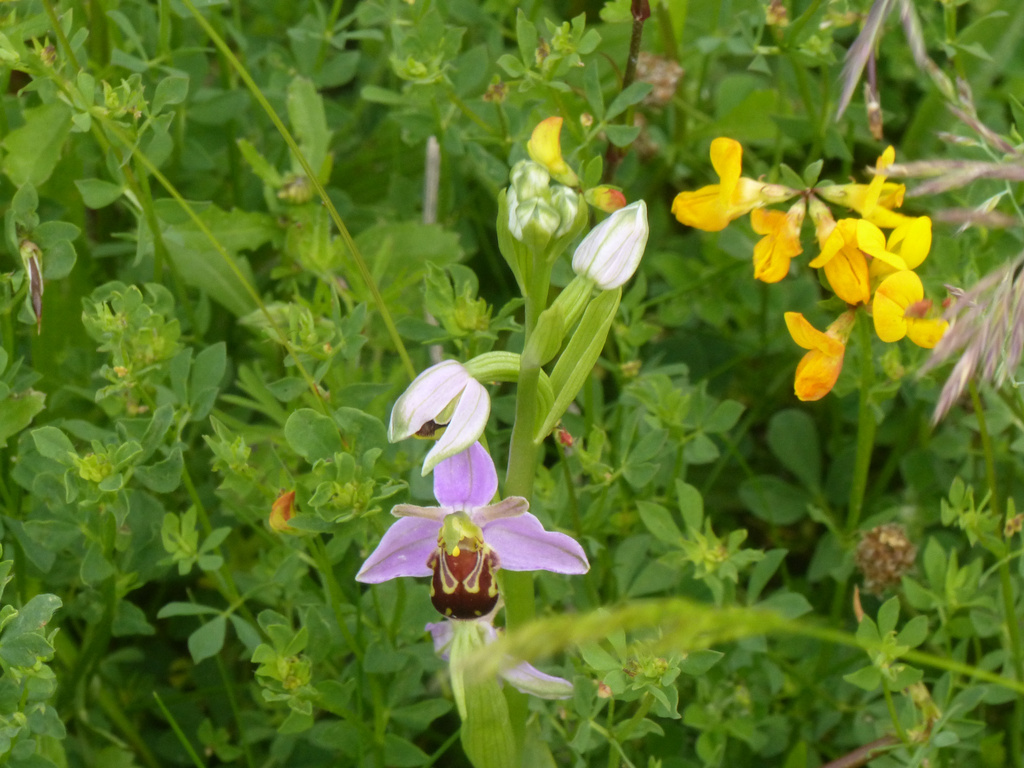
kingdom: Plantae
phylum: Tracheophyta
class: Liliopsida
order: Asparagales
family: Orchidaceae
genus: Ophrys
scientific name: Ophrys apifera
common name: Bee orchid
